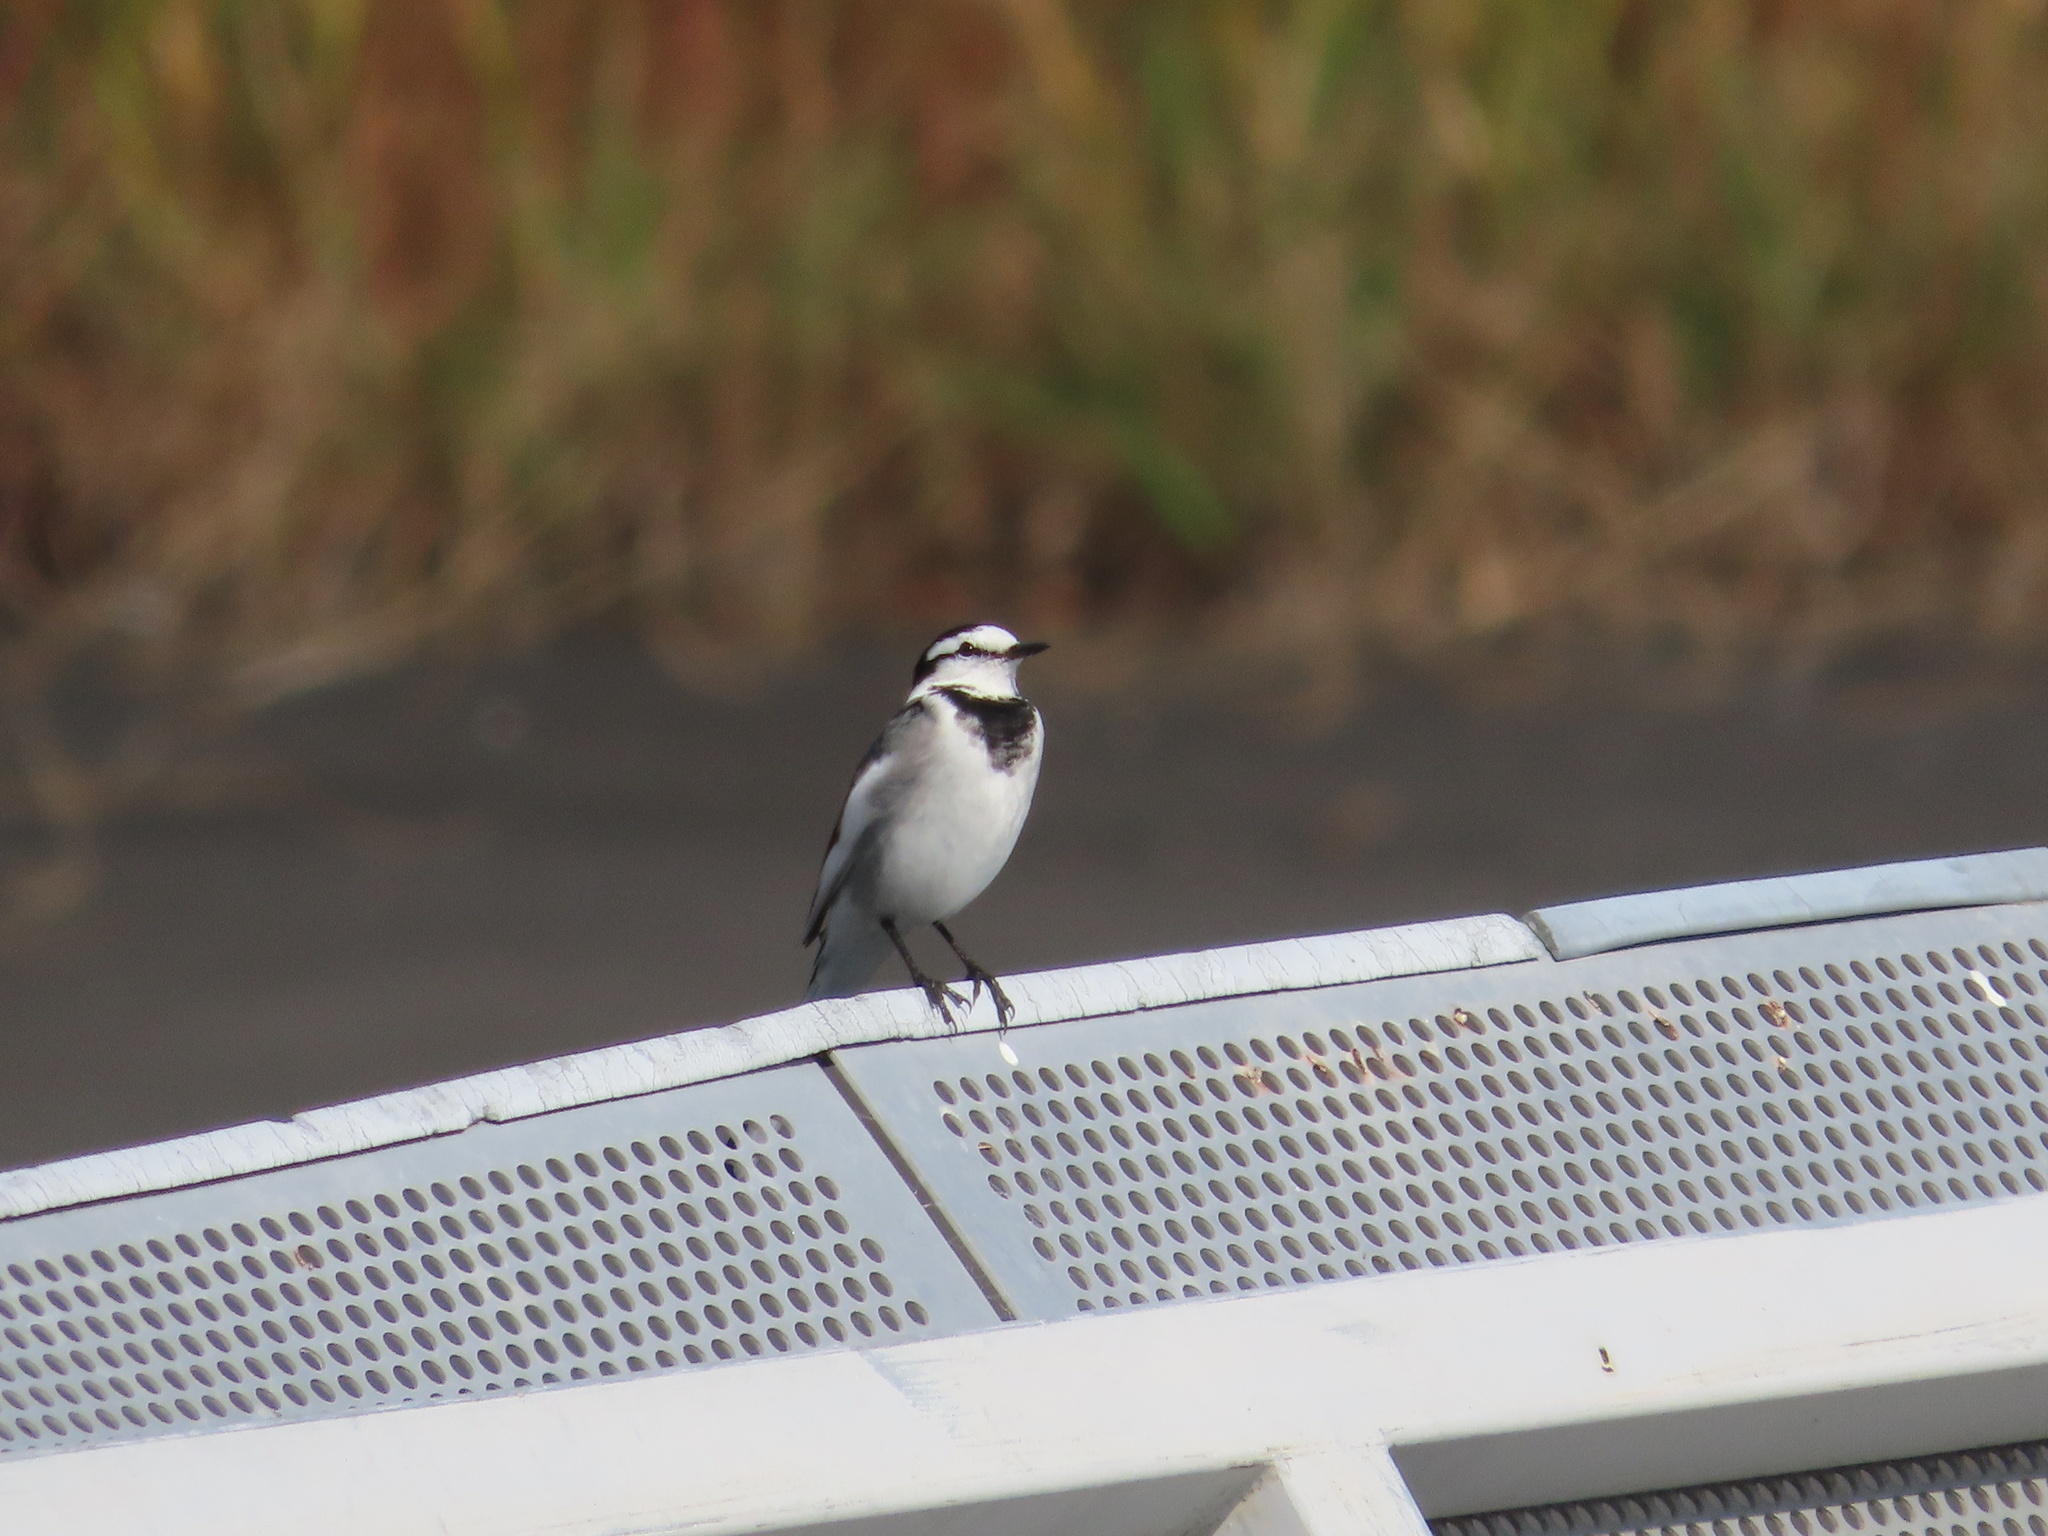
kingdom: Animalia
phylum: Chordata
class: Aves
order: Passeriformes
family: Motacillidae
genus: Motacilla
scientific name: Motacilla alba
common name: White wagtail
